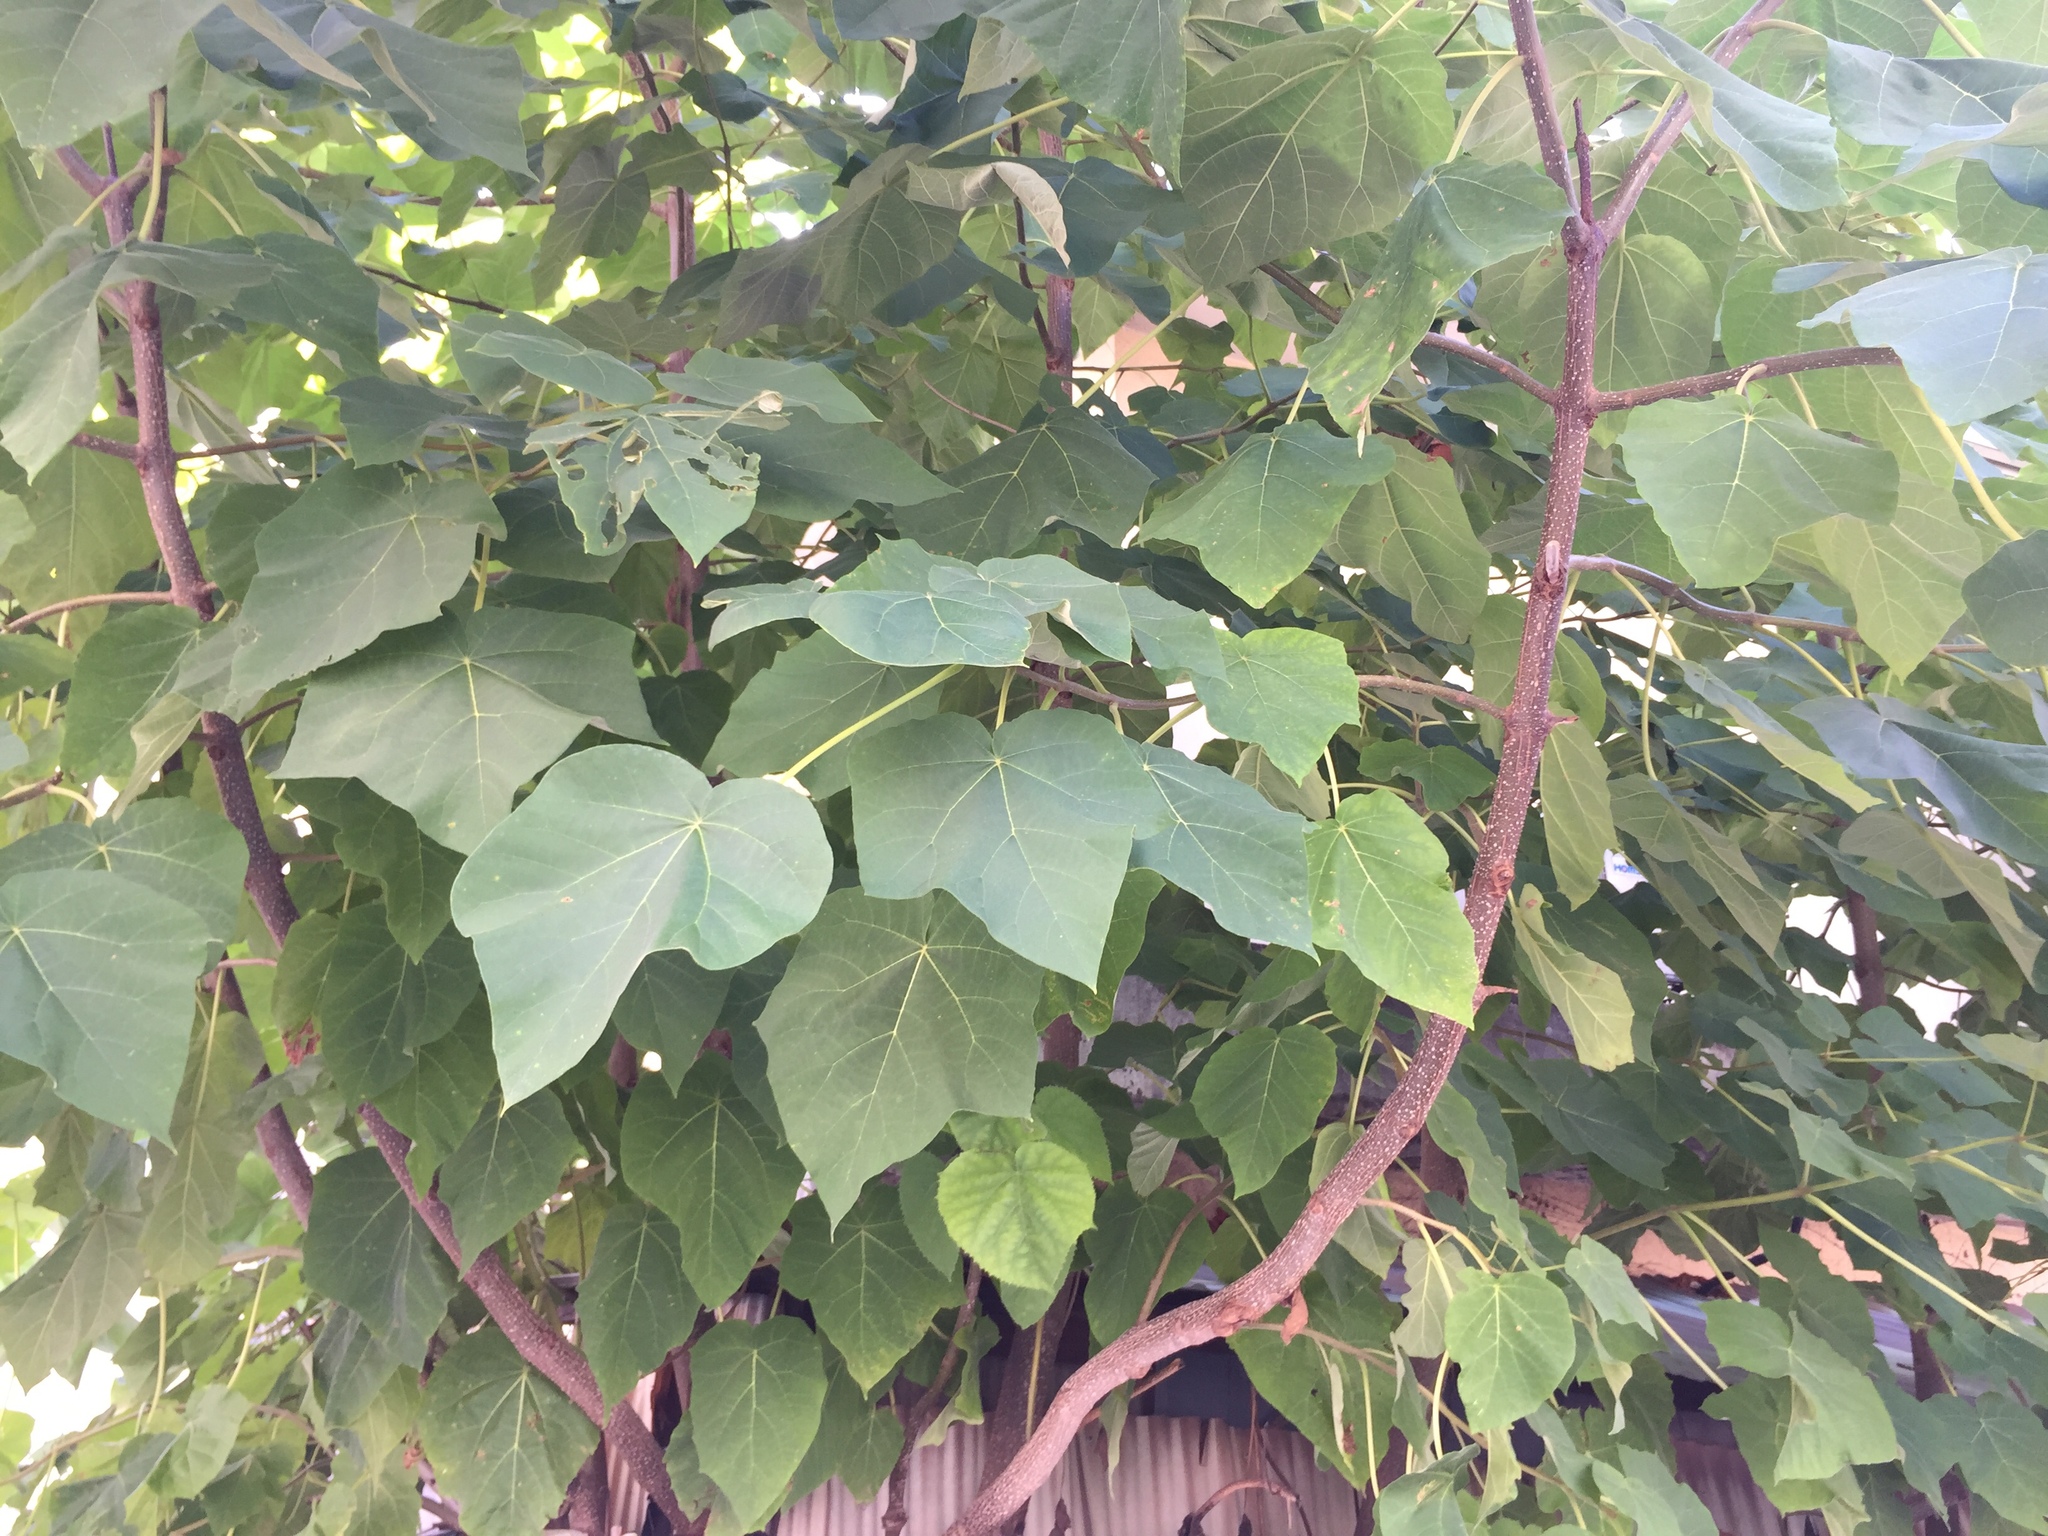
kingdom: Plantae
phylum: Tracheophyta
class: Magnoliopsida
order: Lamiales
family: Paulowniaceae
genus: Paulownia
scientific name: Paulownia tomentosa
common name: Foxglove-tree
